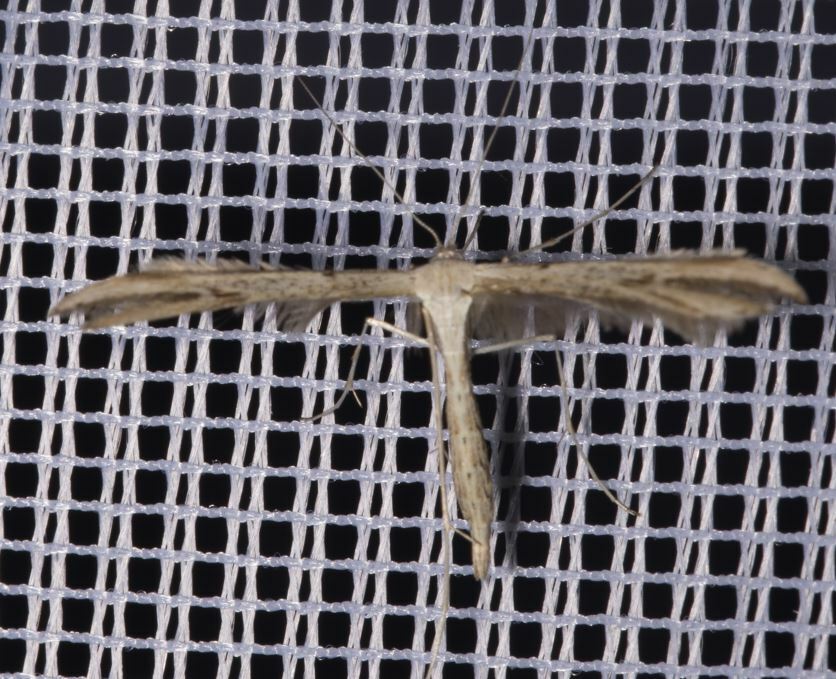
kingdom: Animalia
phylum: Arthropoda
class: Insecta
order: Lepidoptera
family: Pterophoridae
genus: Emmelina
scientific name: Emmelina monodactyla
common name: Common plume
